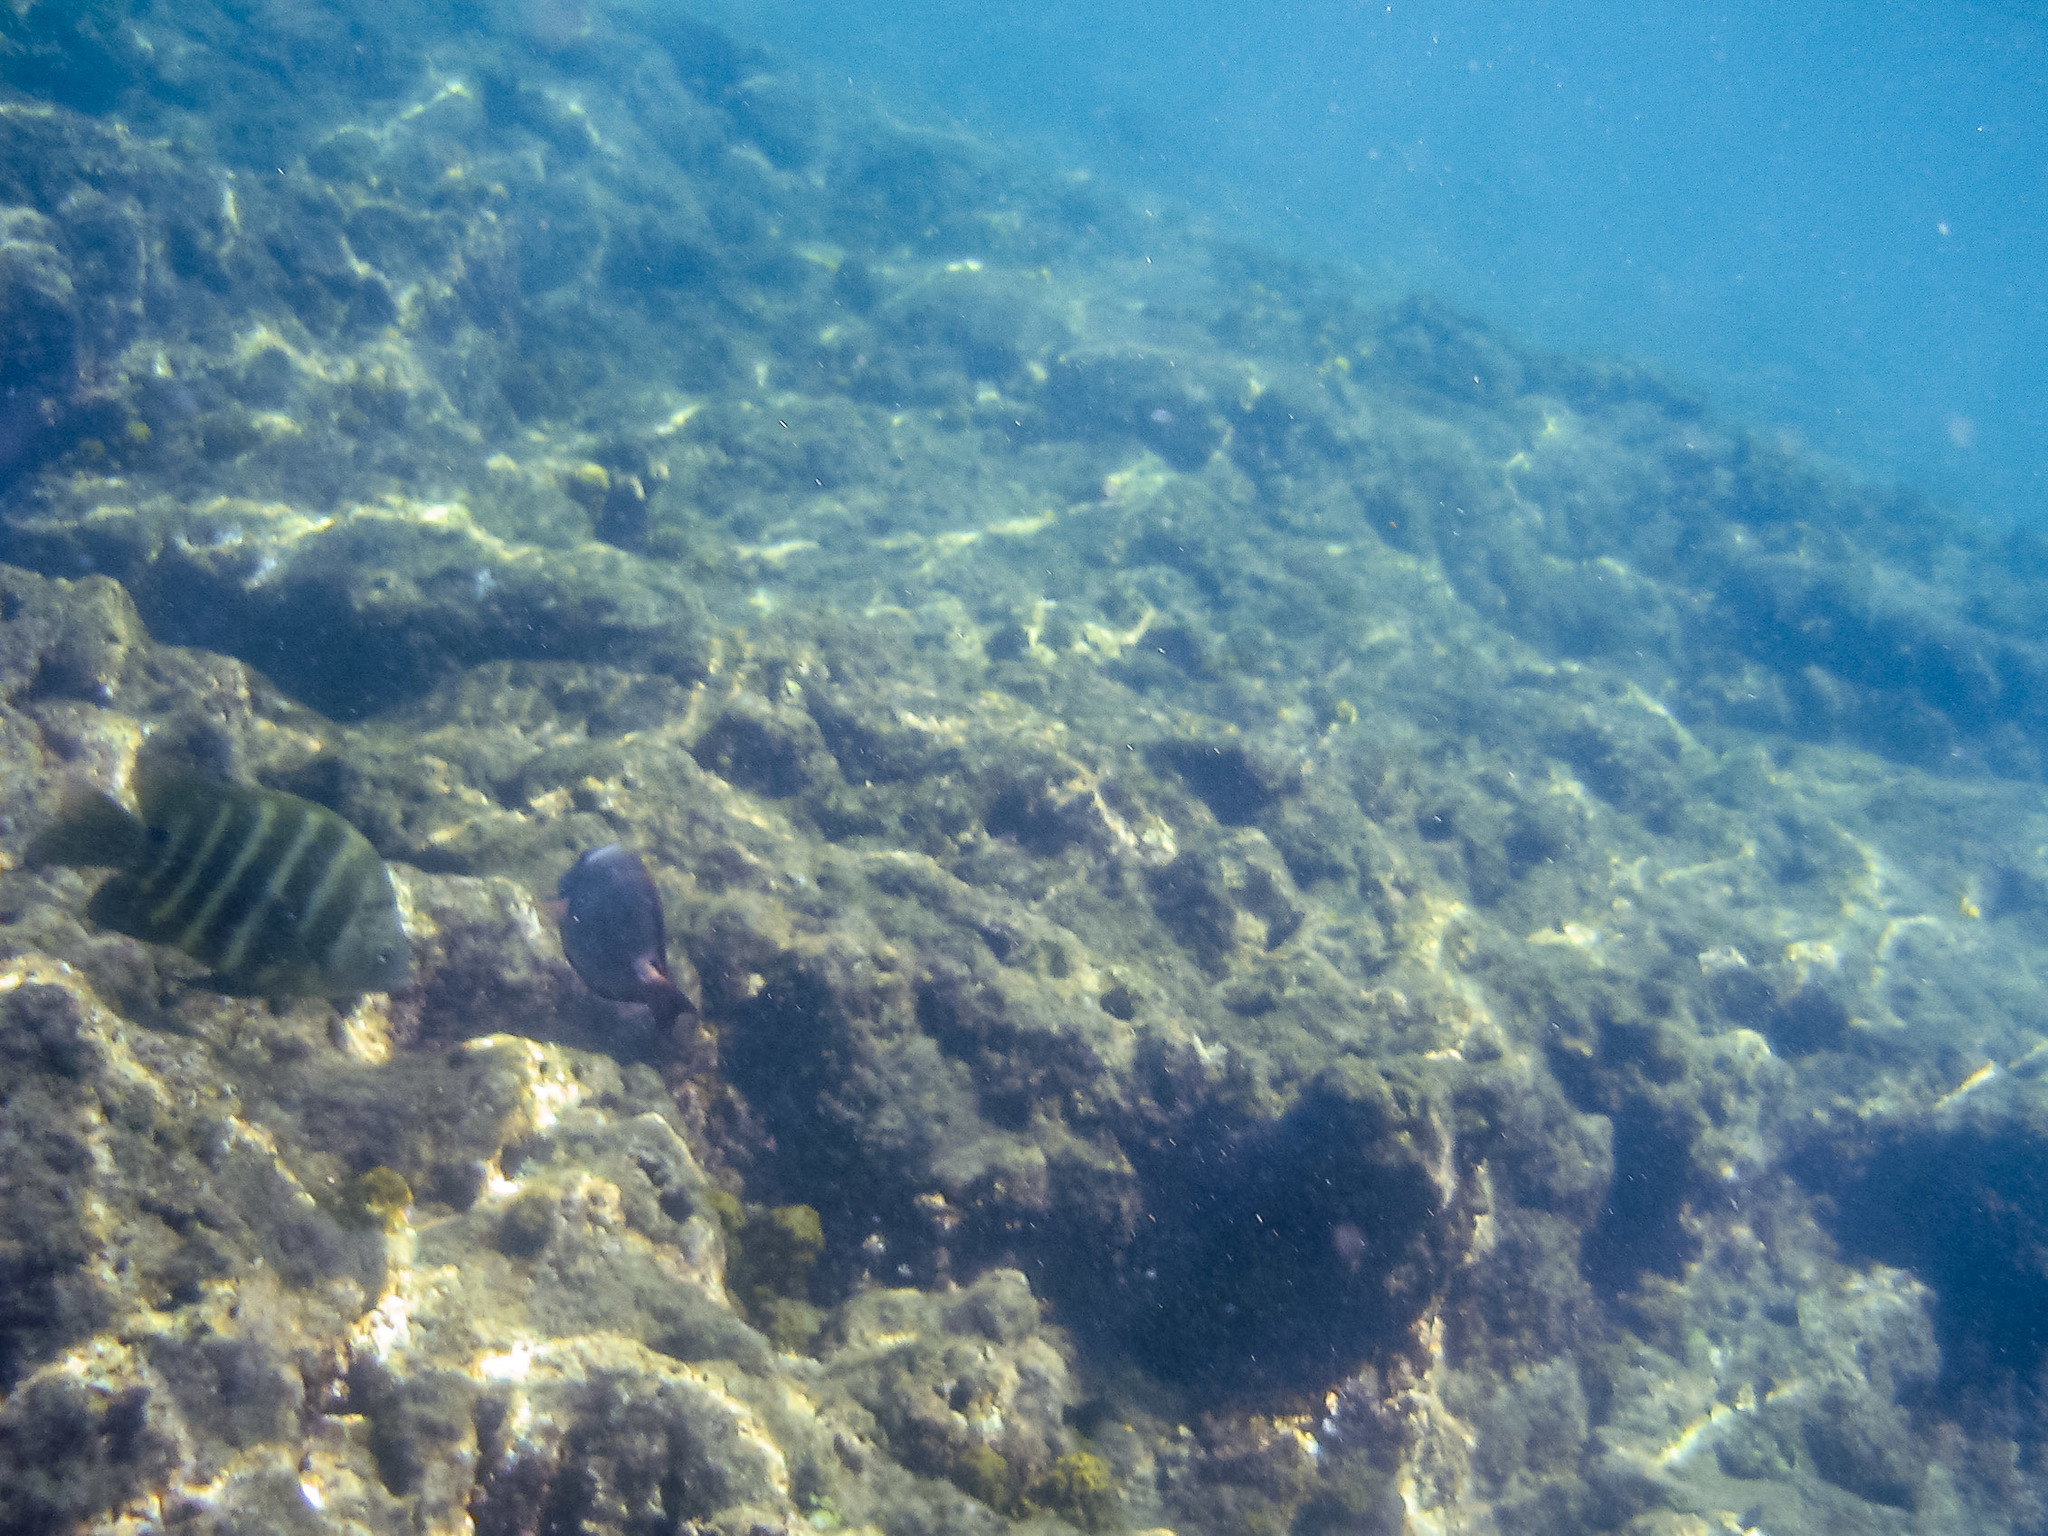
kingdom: Animalia
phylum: Chordata
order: Perciformes
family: Pomacentridae
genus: Abudefduf
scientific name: Abudefduf sordidus
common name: Blackspot sergeant
